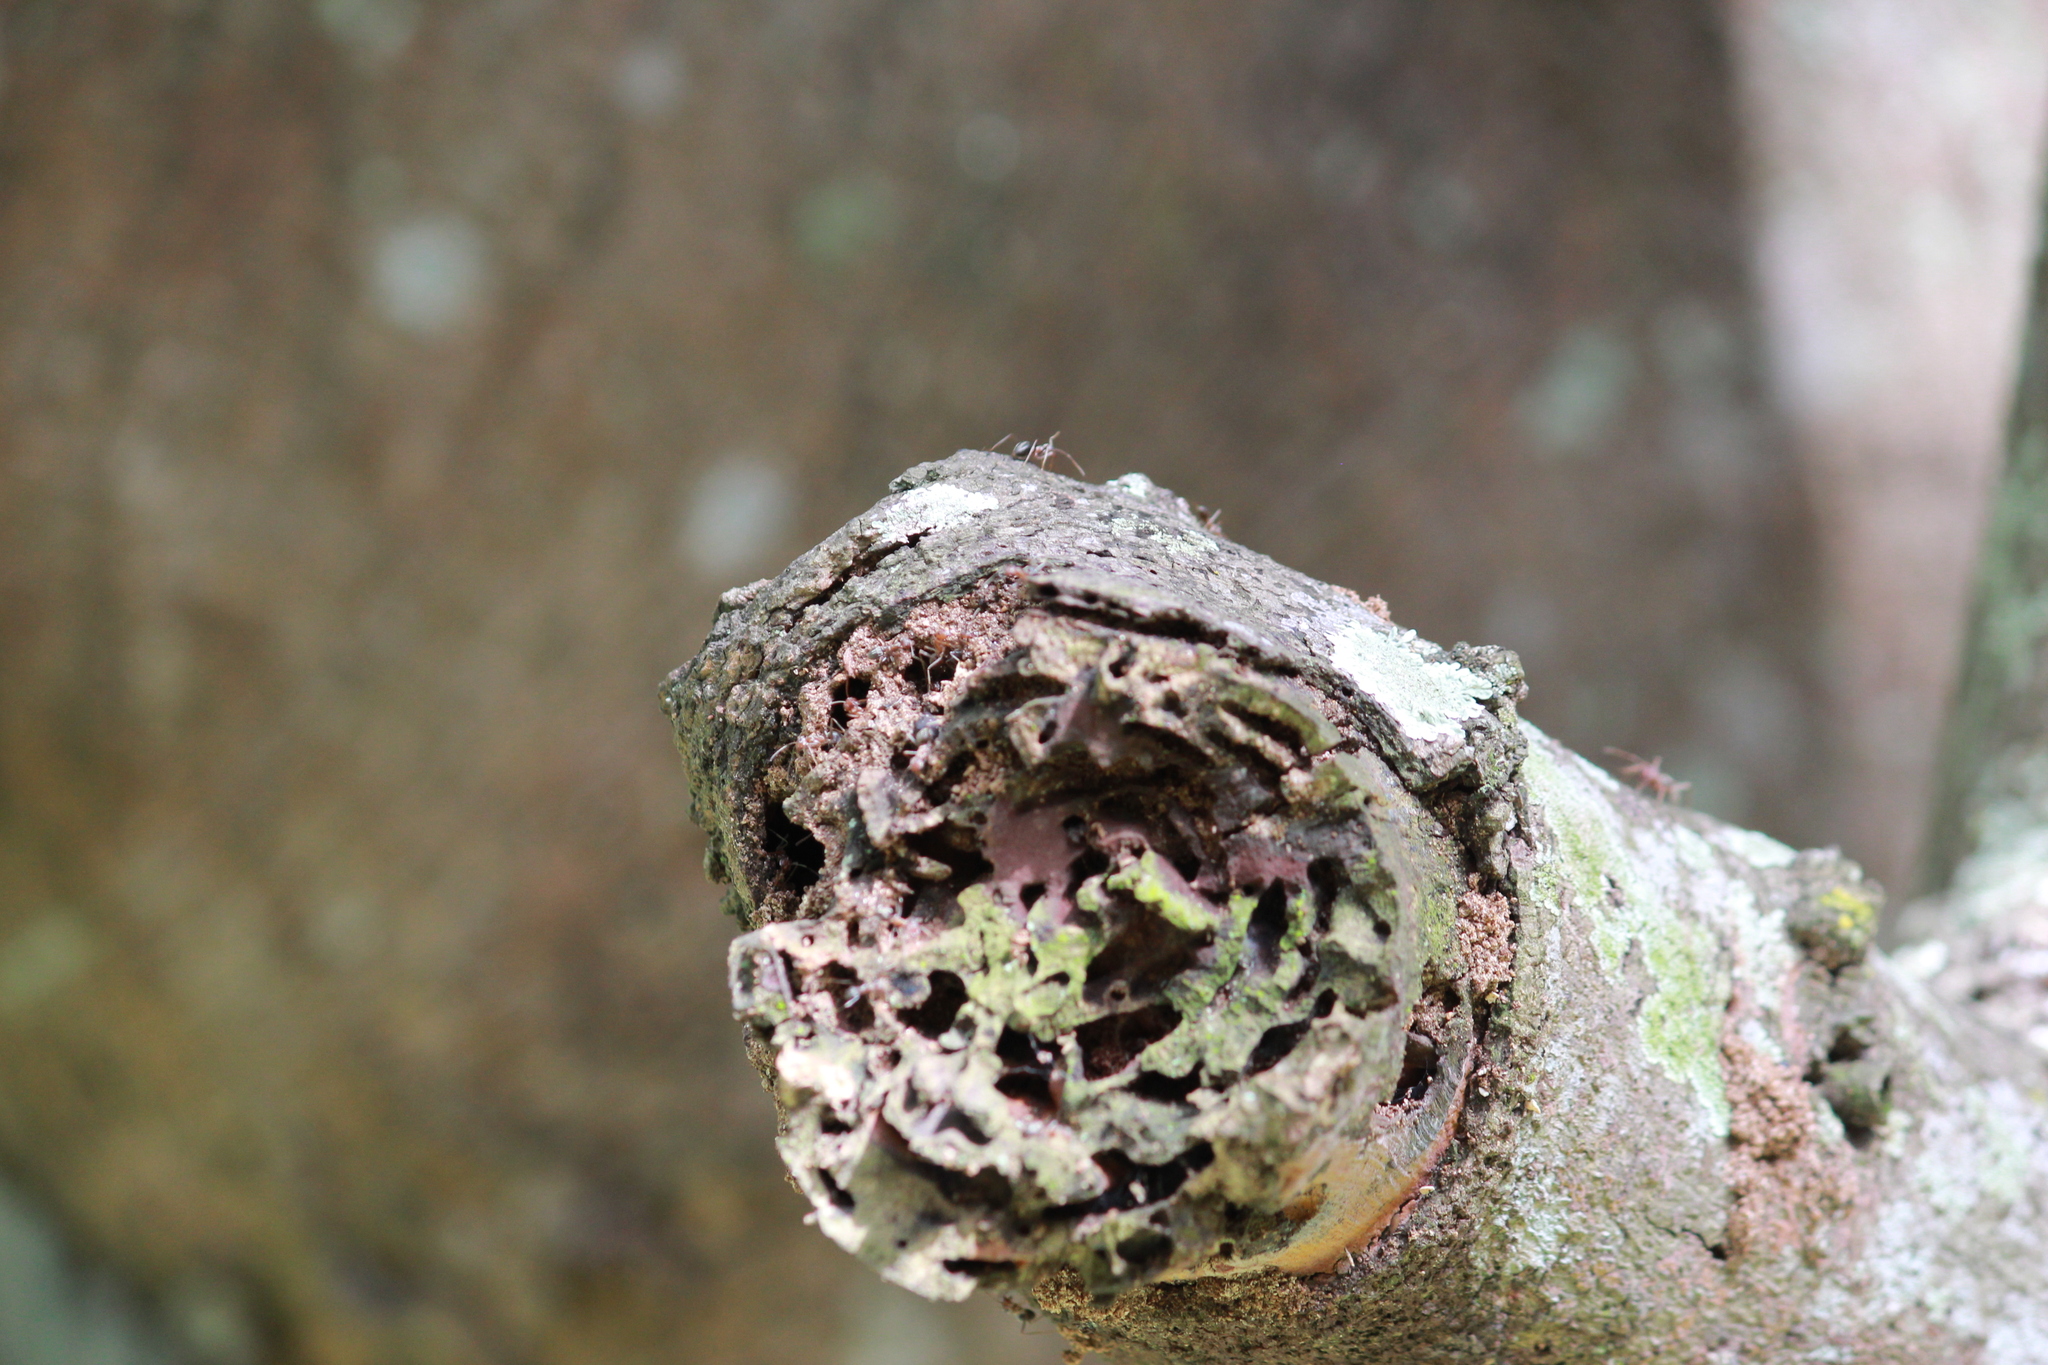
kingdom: Animalia
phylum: Arthropoda
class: Insecta
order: Hymenoptera
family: Formicidae
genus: Anoplolepis
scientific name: Anoplolepis custodiens
